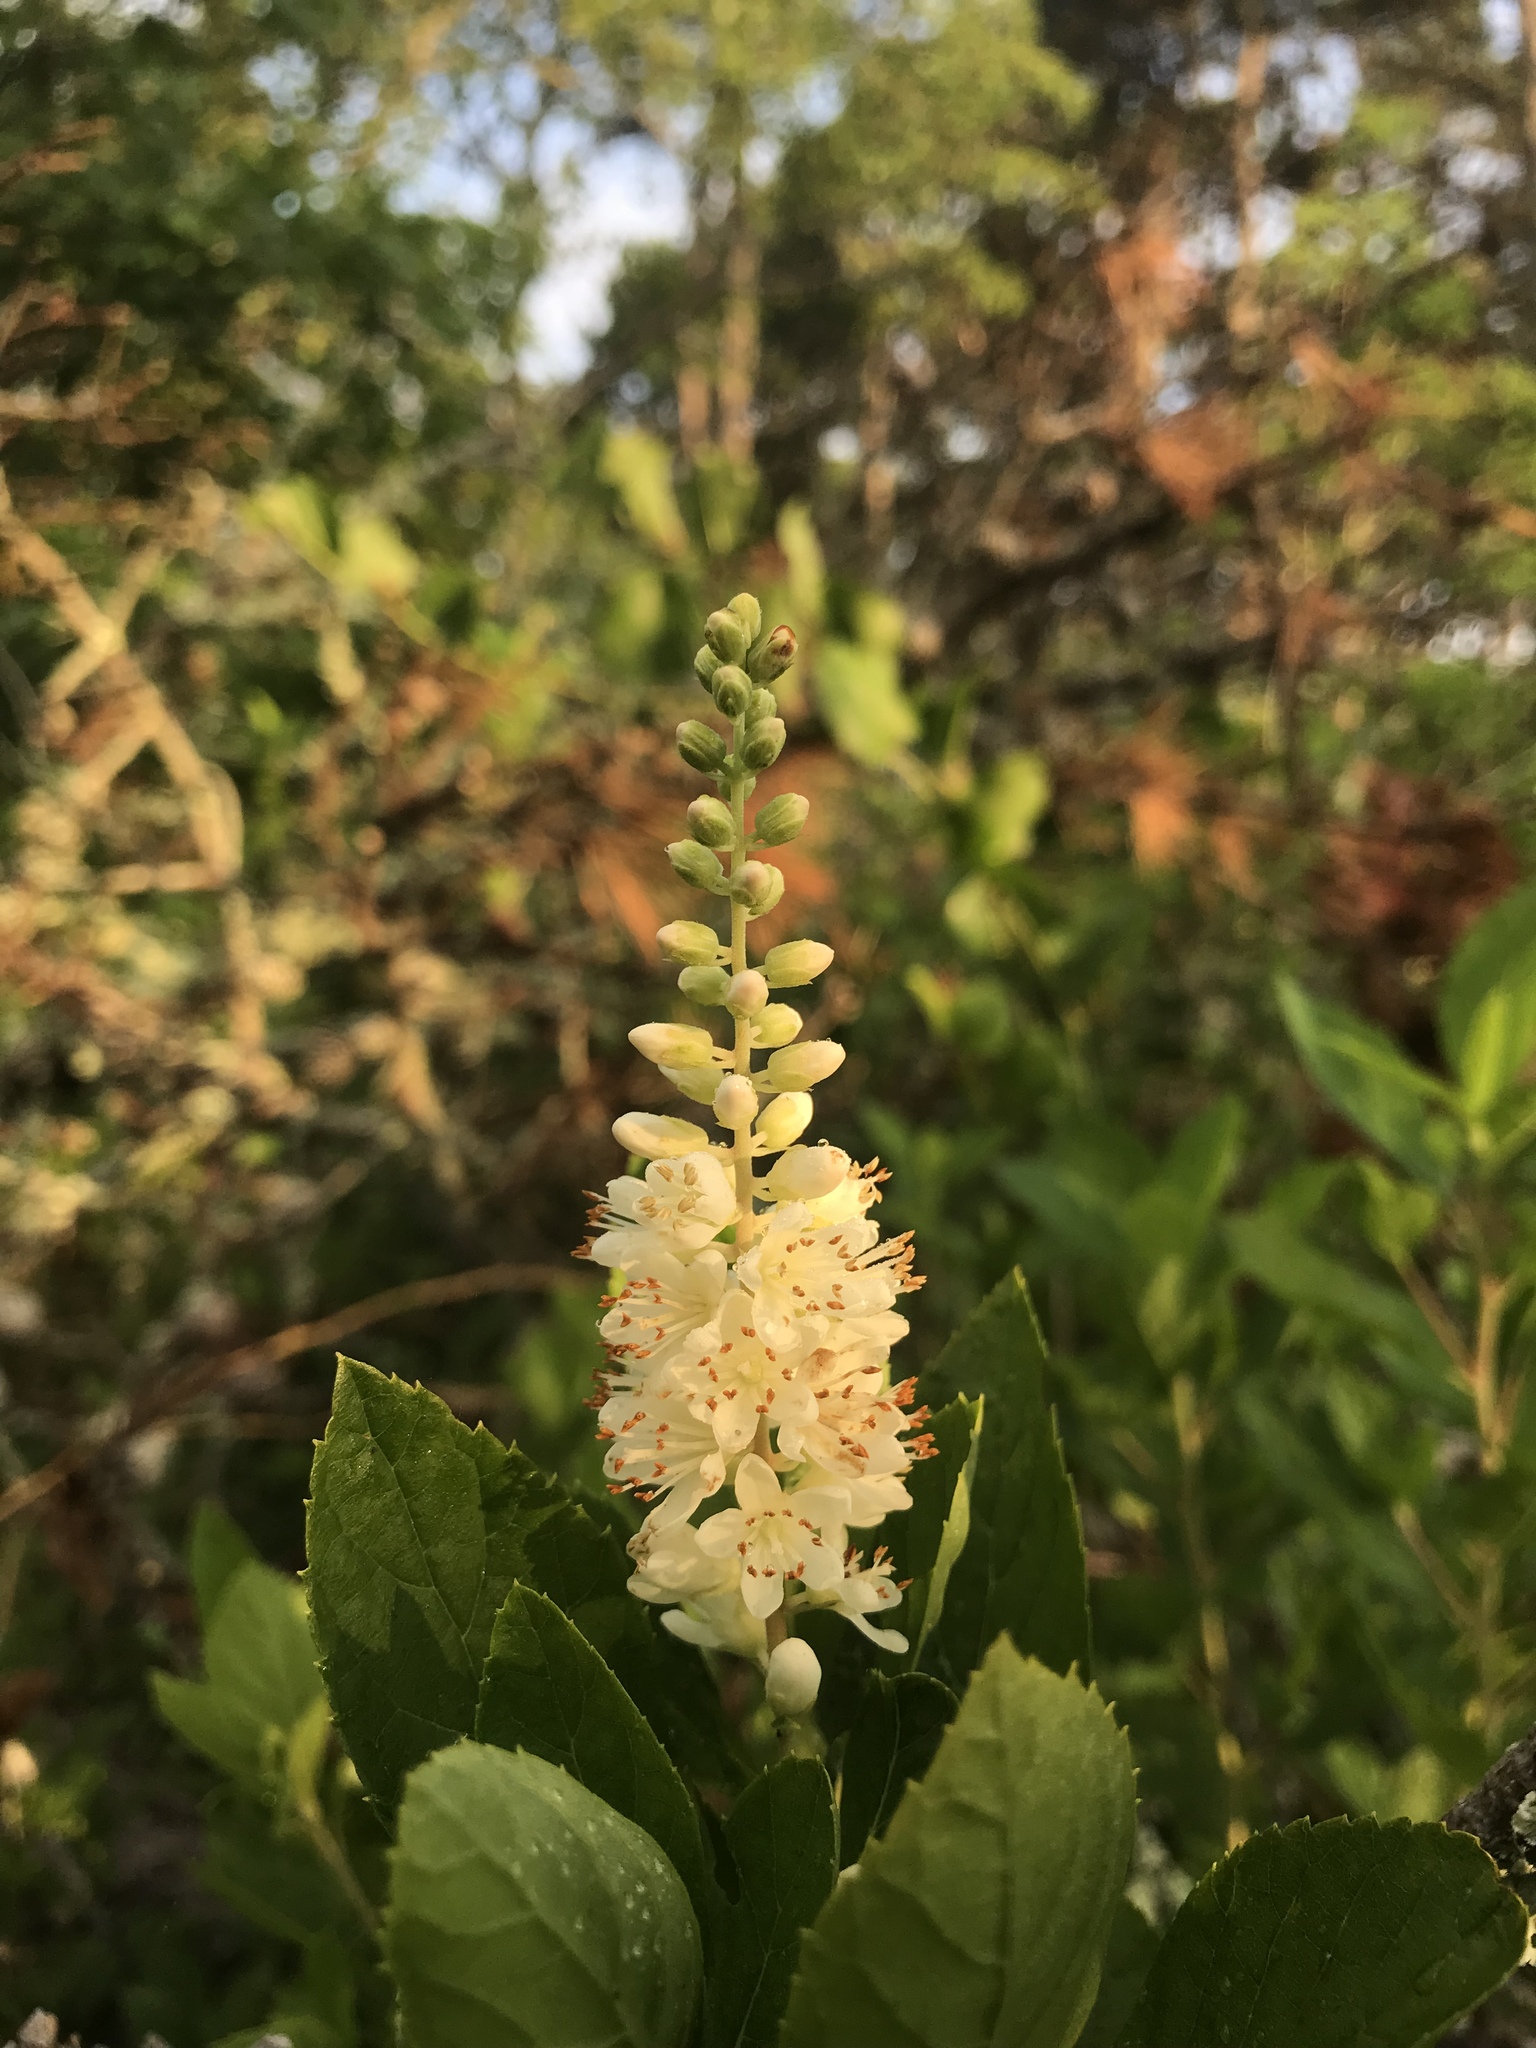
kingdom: Plantae
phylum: Tracheophyta
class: Magnoliopsida
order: Ericales
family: Clethraceae
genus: Clethra
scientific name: Clethra alnifolia
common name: Sweet pepperbush
